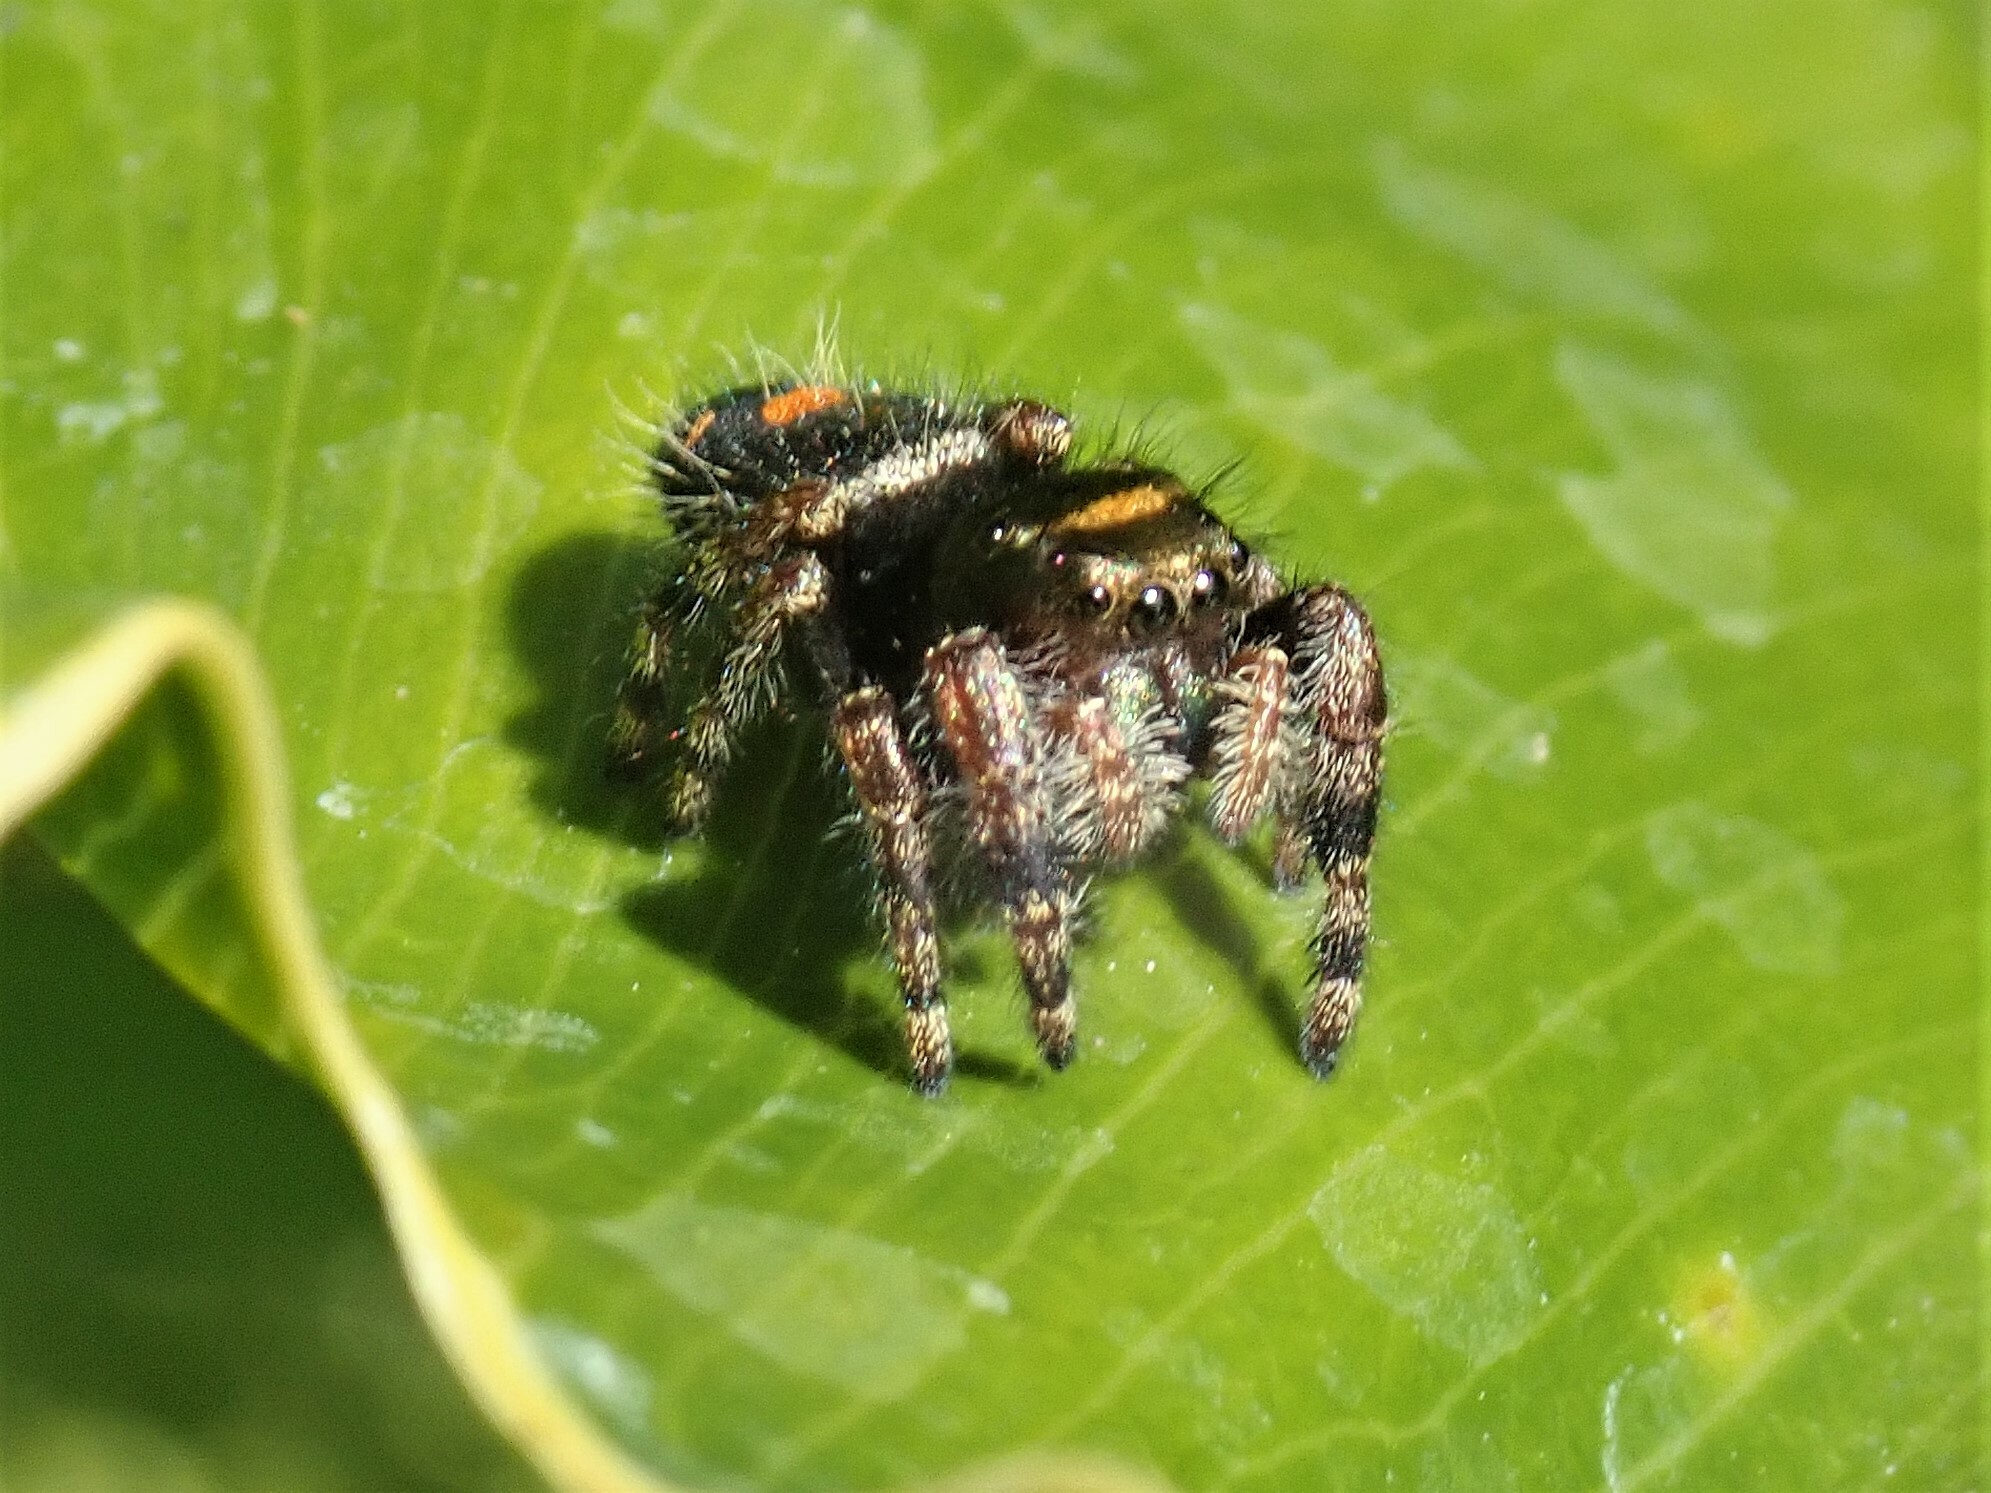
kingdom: Animalia
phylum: Arthropoda
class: Arachnida
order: Araneae
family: Salticidae
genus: Phidippus
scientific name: Phidippus audax
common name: Bold jumper
